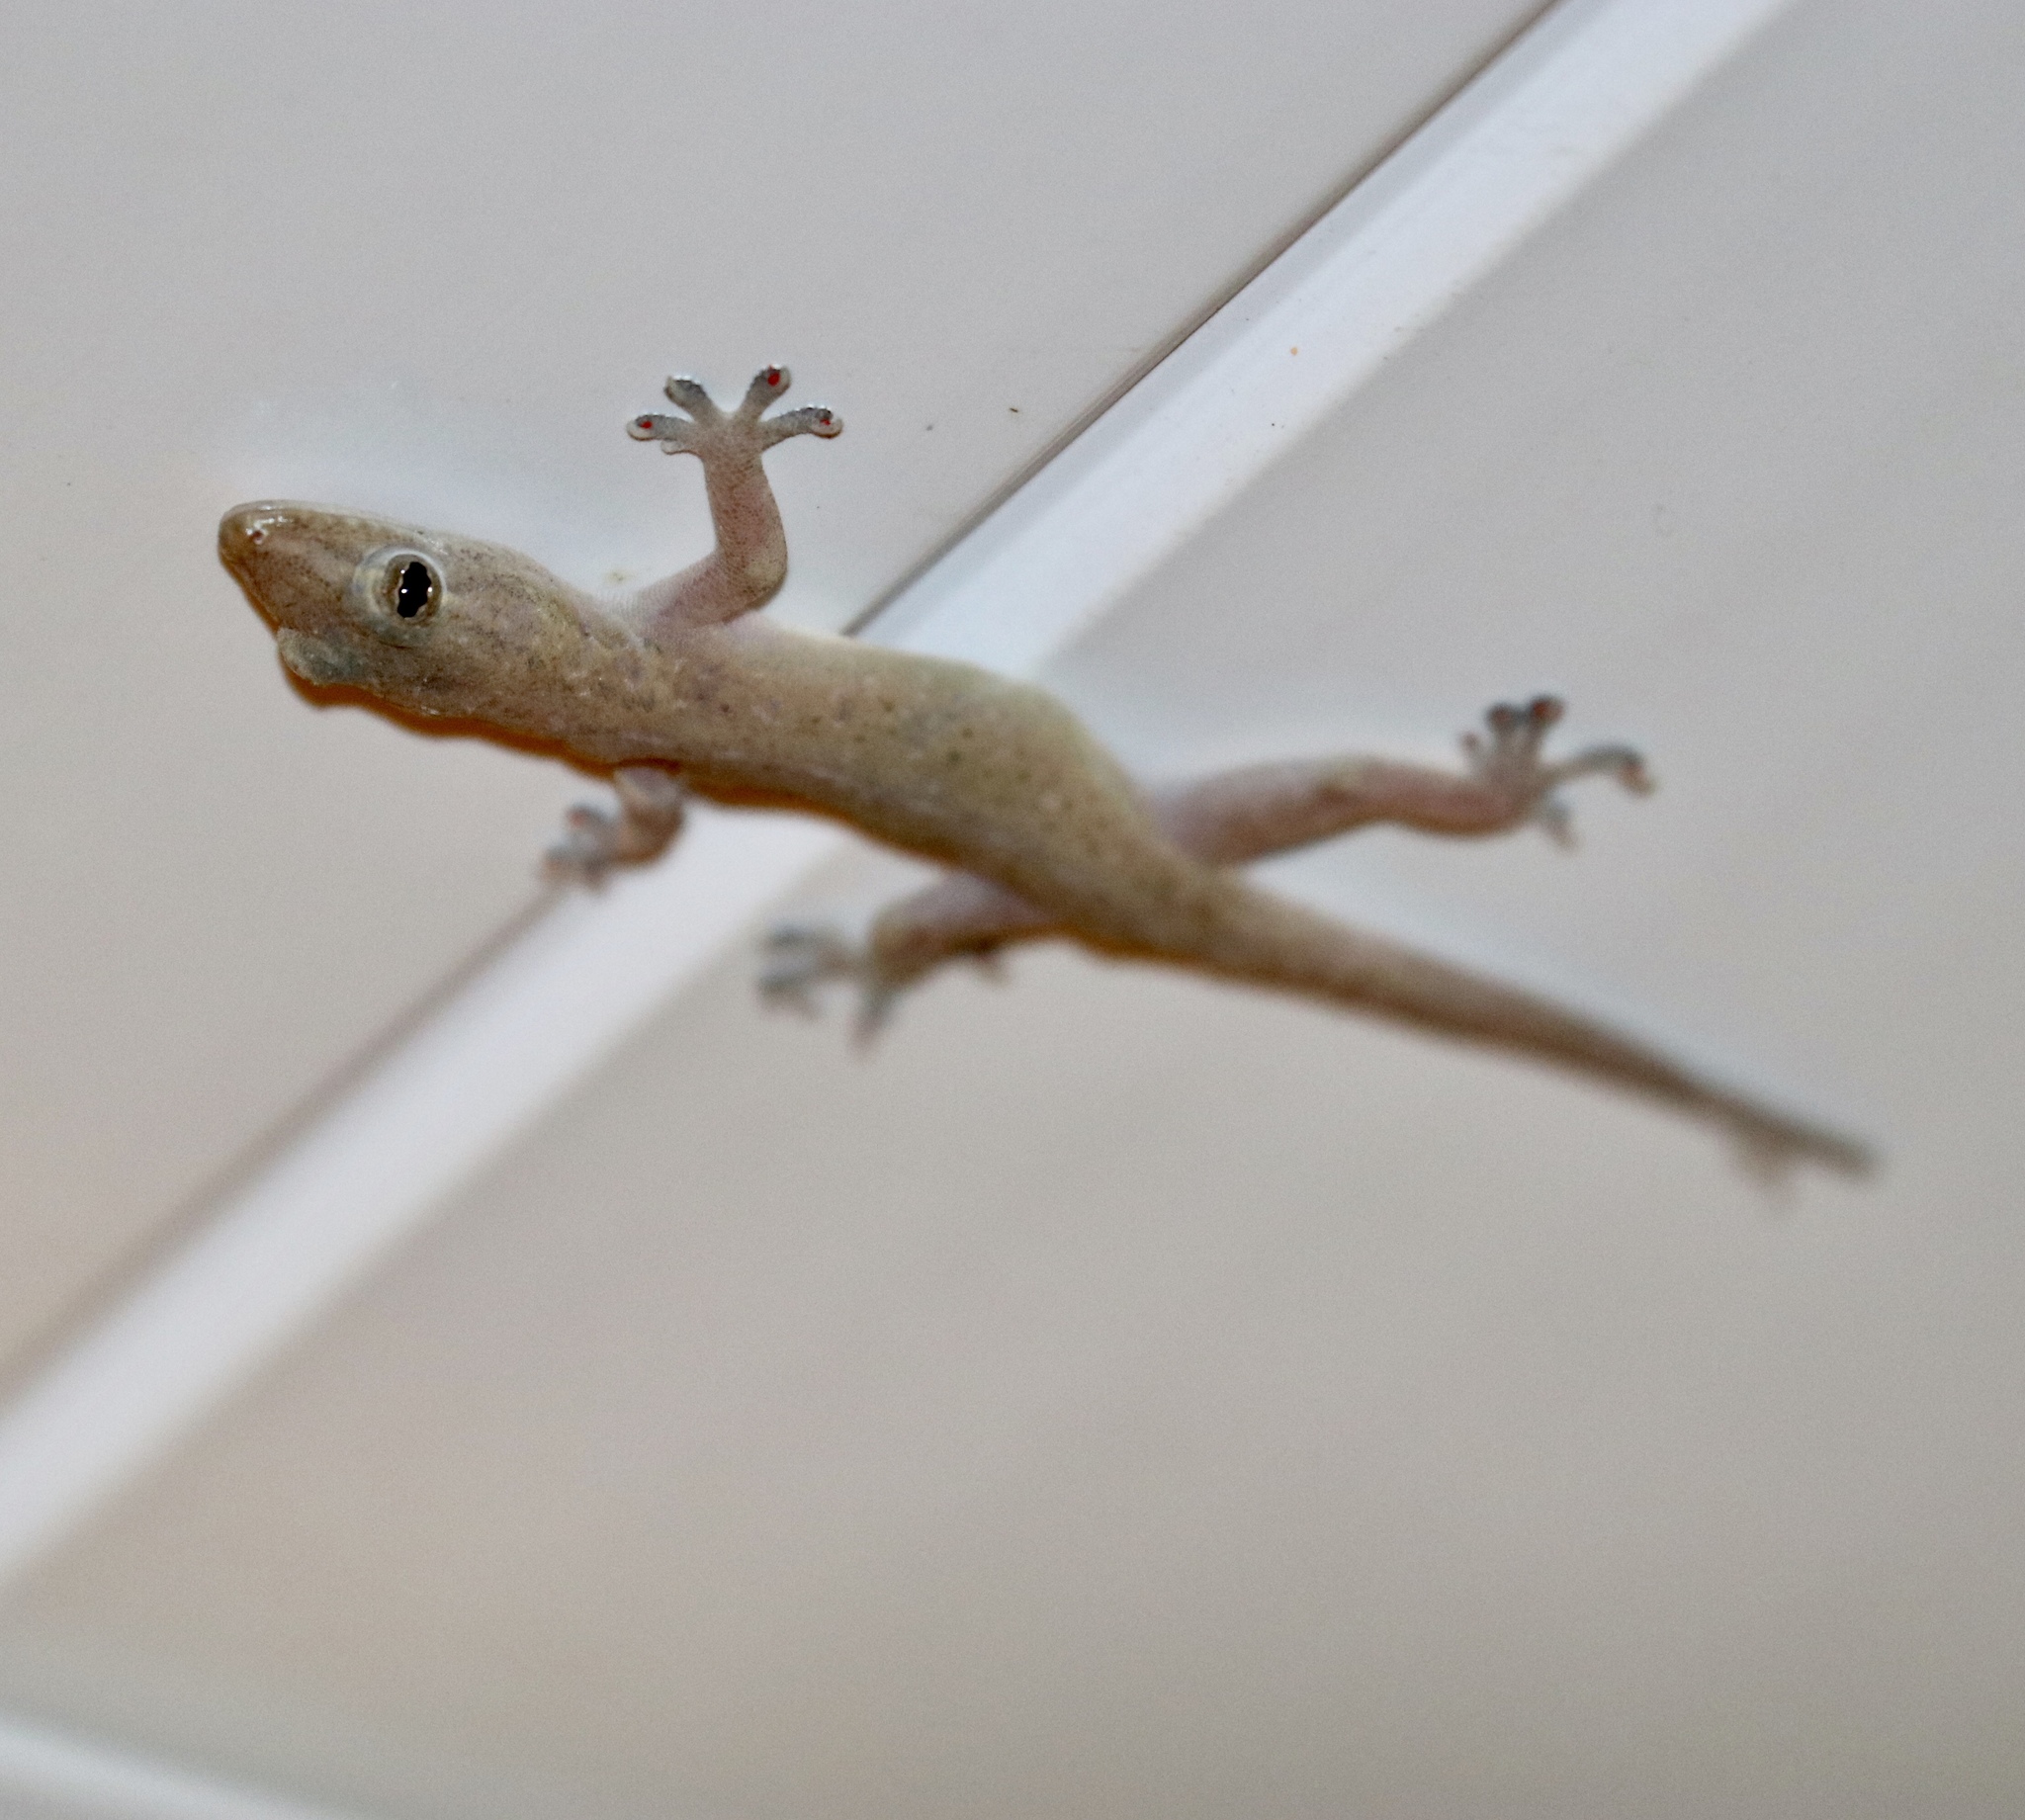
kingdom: Animalia
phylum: Chordata
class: Squamata
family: Gekkonidae
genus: Hemidactylus
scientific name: Hemidactylus frenatus
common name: Common house gecko
